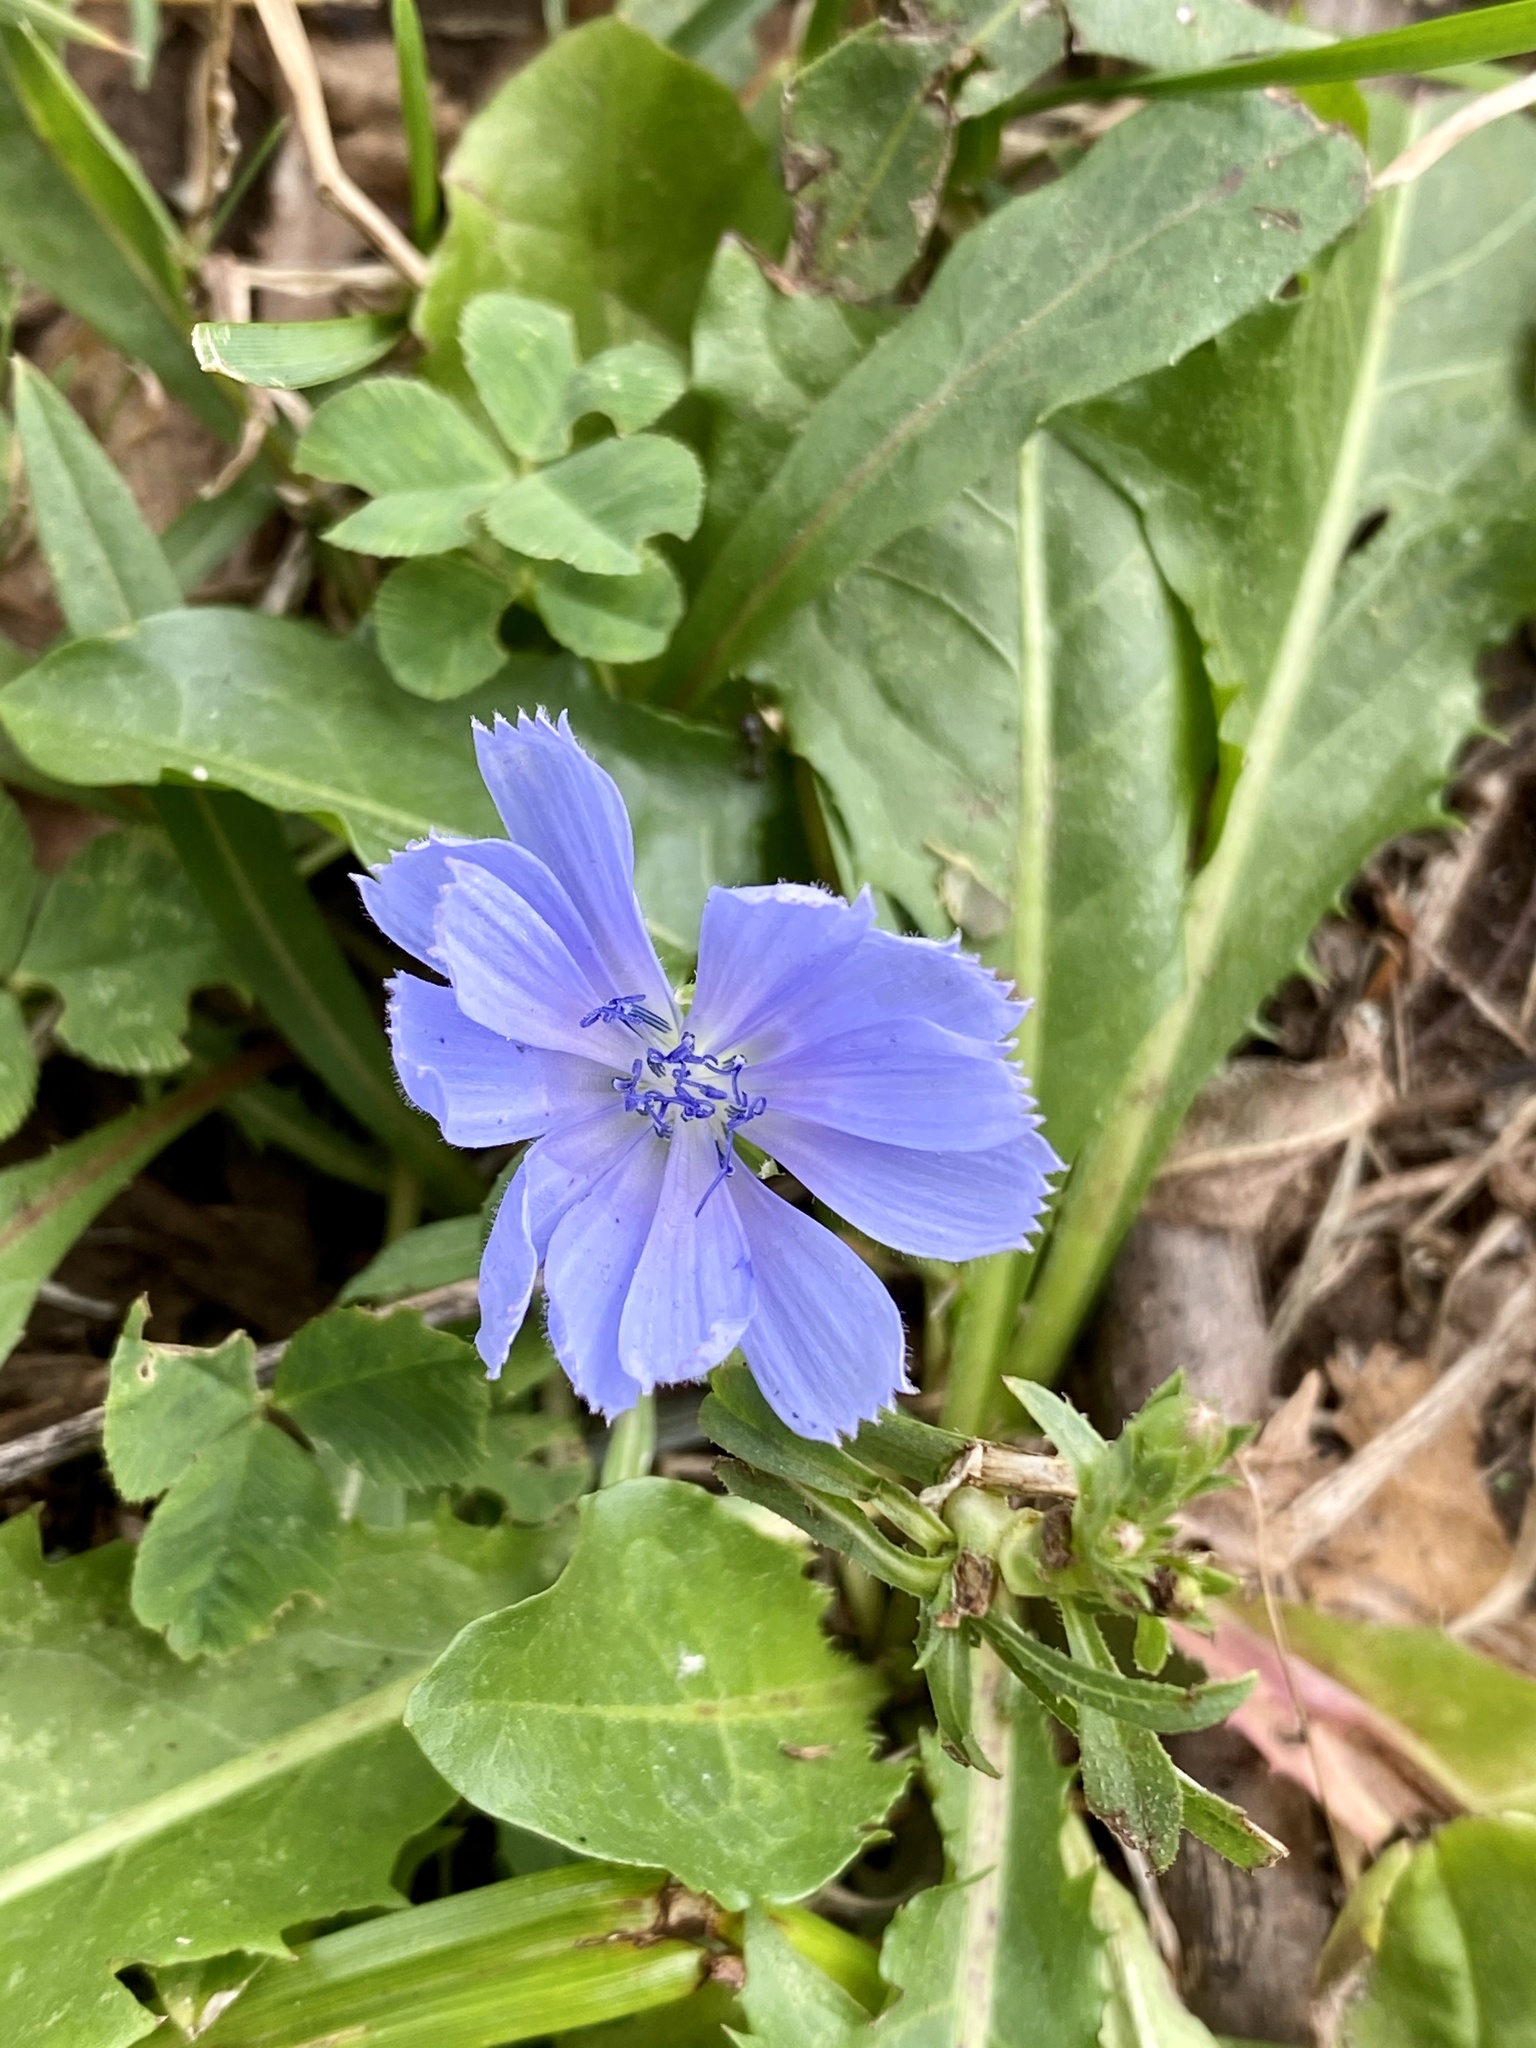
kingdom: Plantae
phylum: Tracheophyta
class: Magnoliopsida
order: Asterales
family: Asteraceae
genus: Cichorium
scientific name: Cichorium intybus
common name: Chicory
